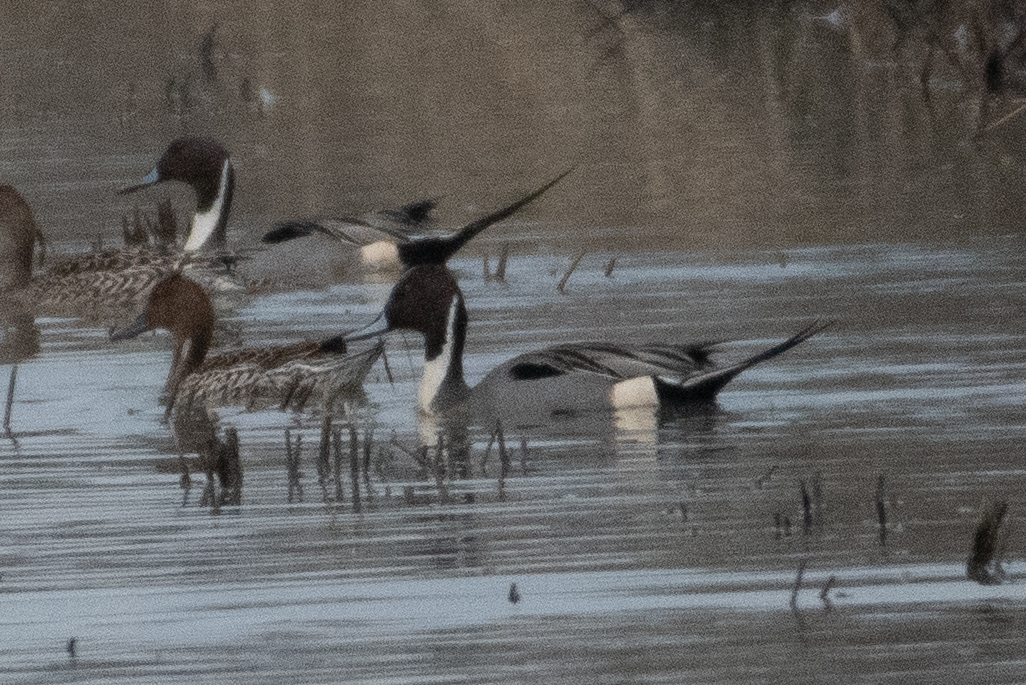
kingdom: Animalia
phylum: Chordata
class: Aves
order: Anseriformes
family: Anatidae
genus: Anas
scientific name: Anas acuta
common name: Northern pintail
